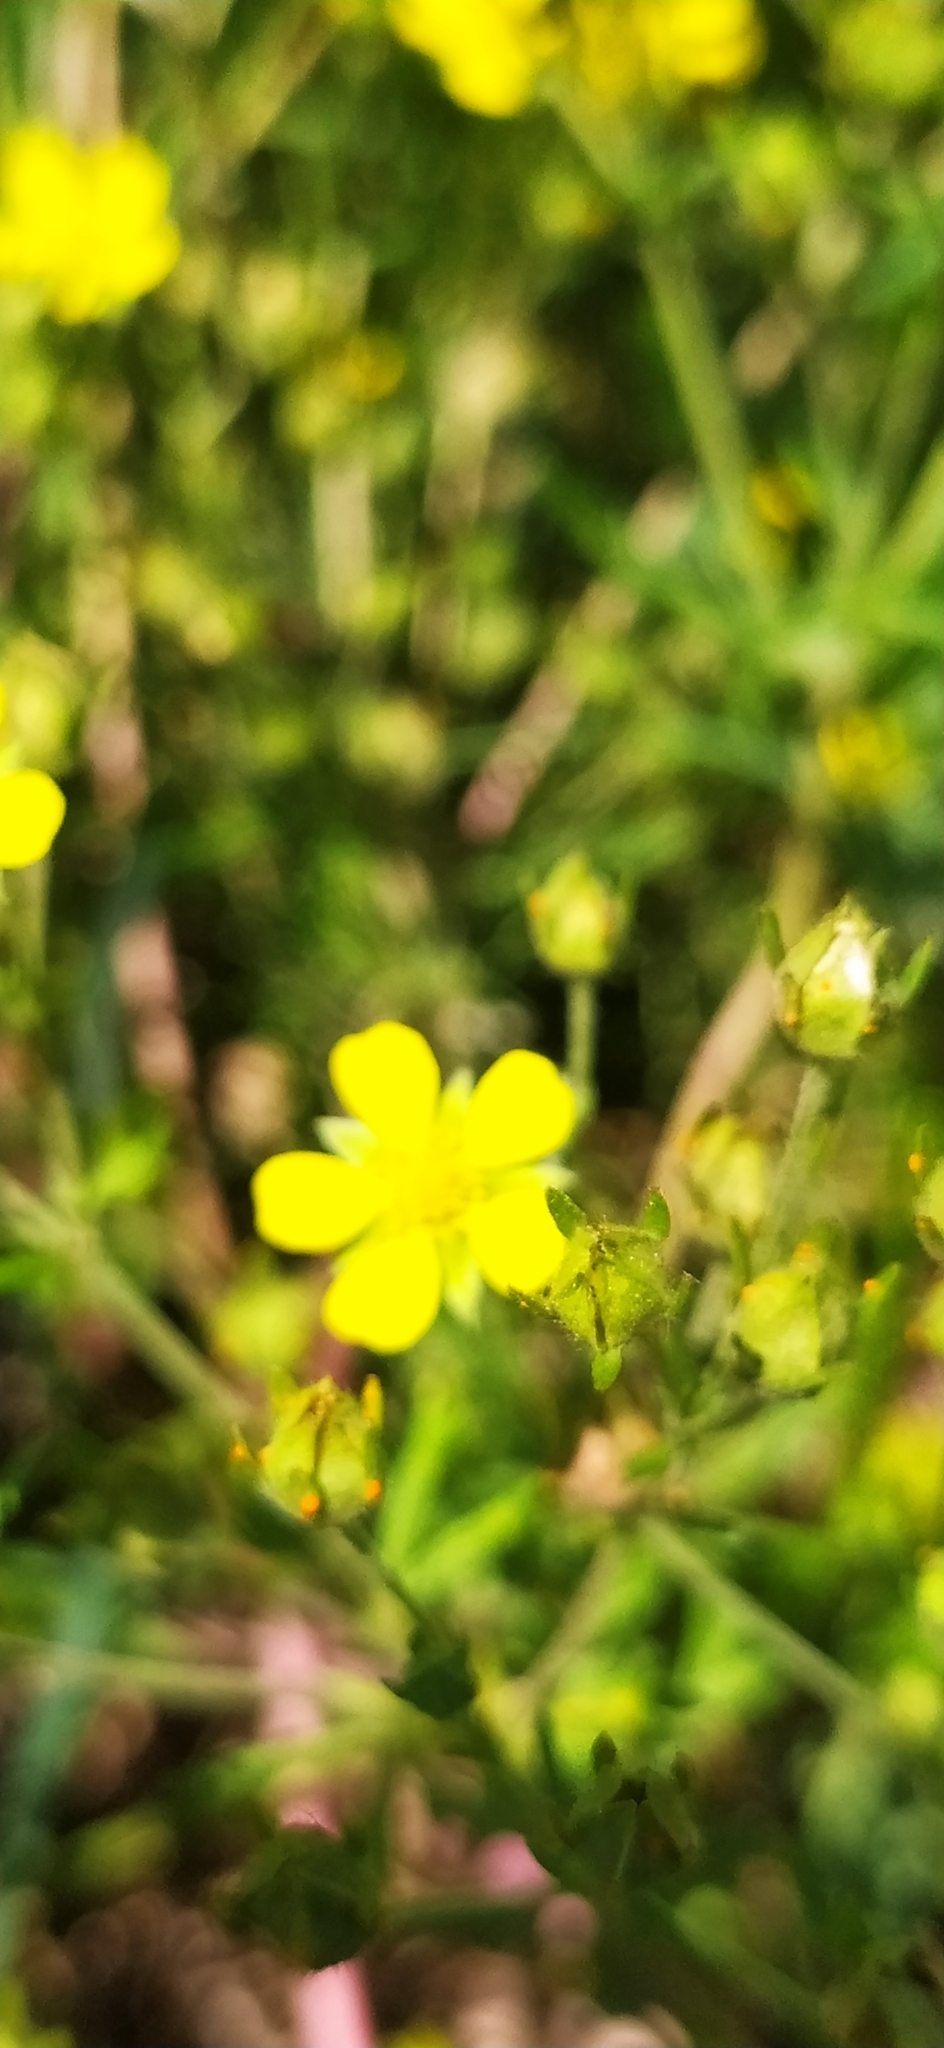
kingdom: Plantae
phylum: Tracheophyta
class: Magnoliopsida
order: Rosales
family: Rosaceae
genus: Potentilla
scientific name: Potentilla argentea
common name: Hoary cinquefoil
